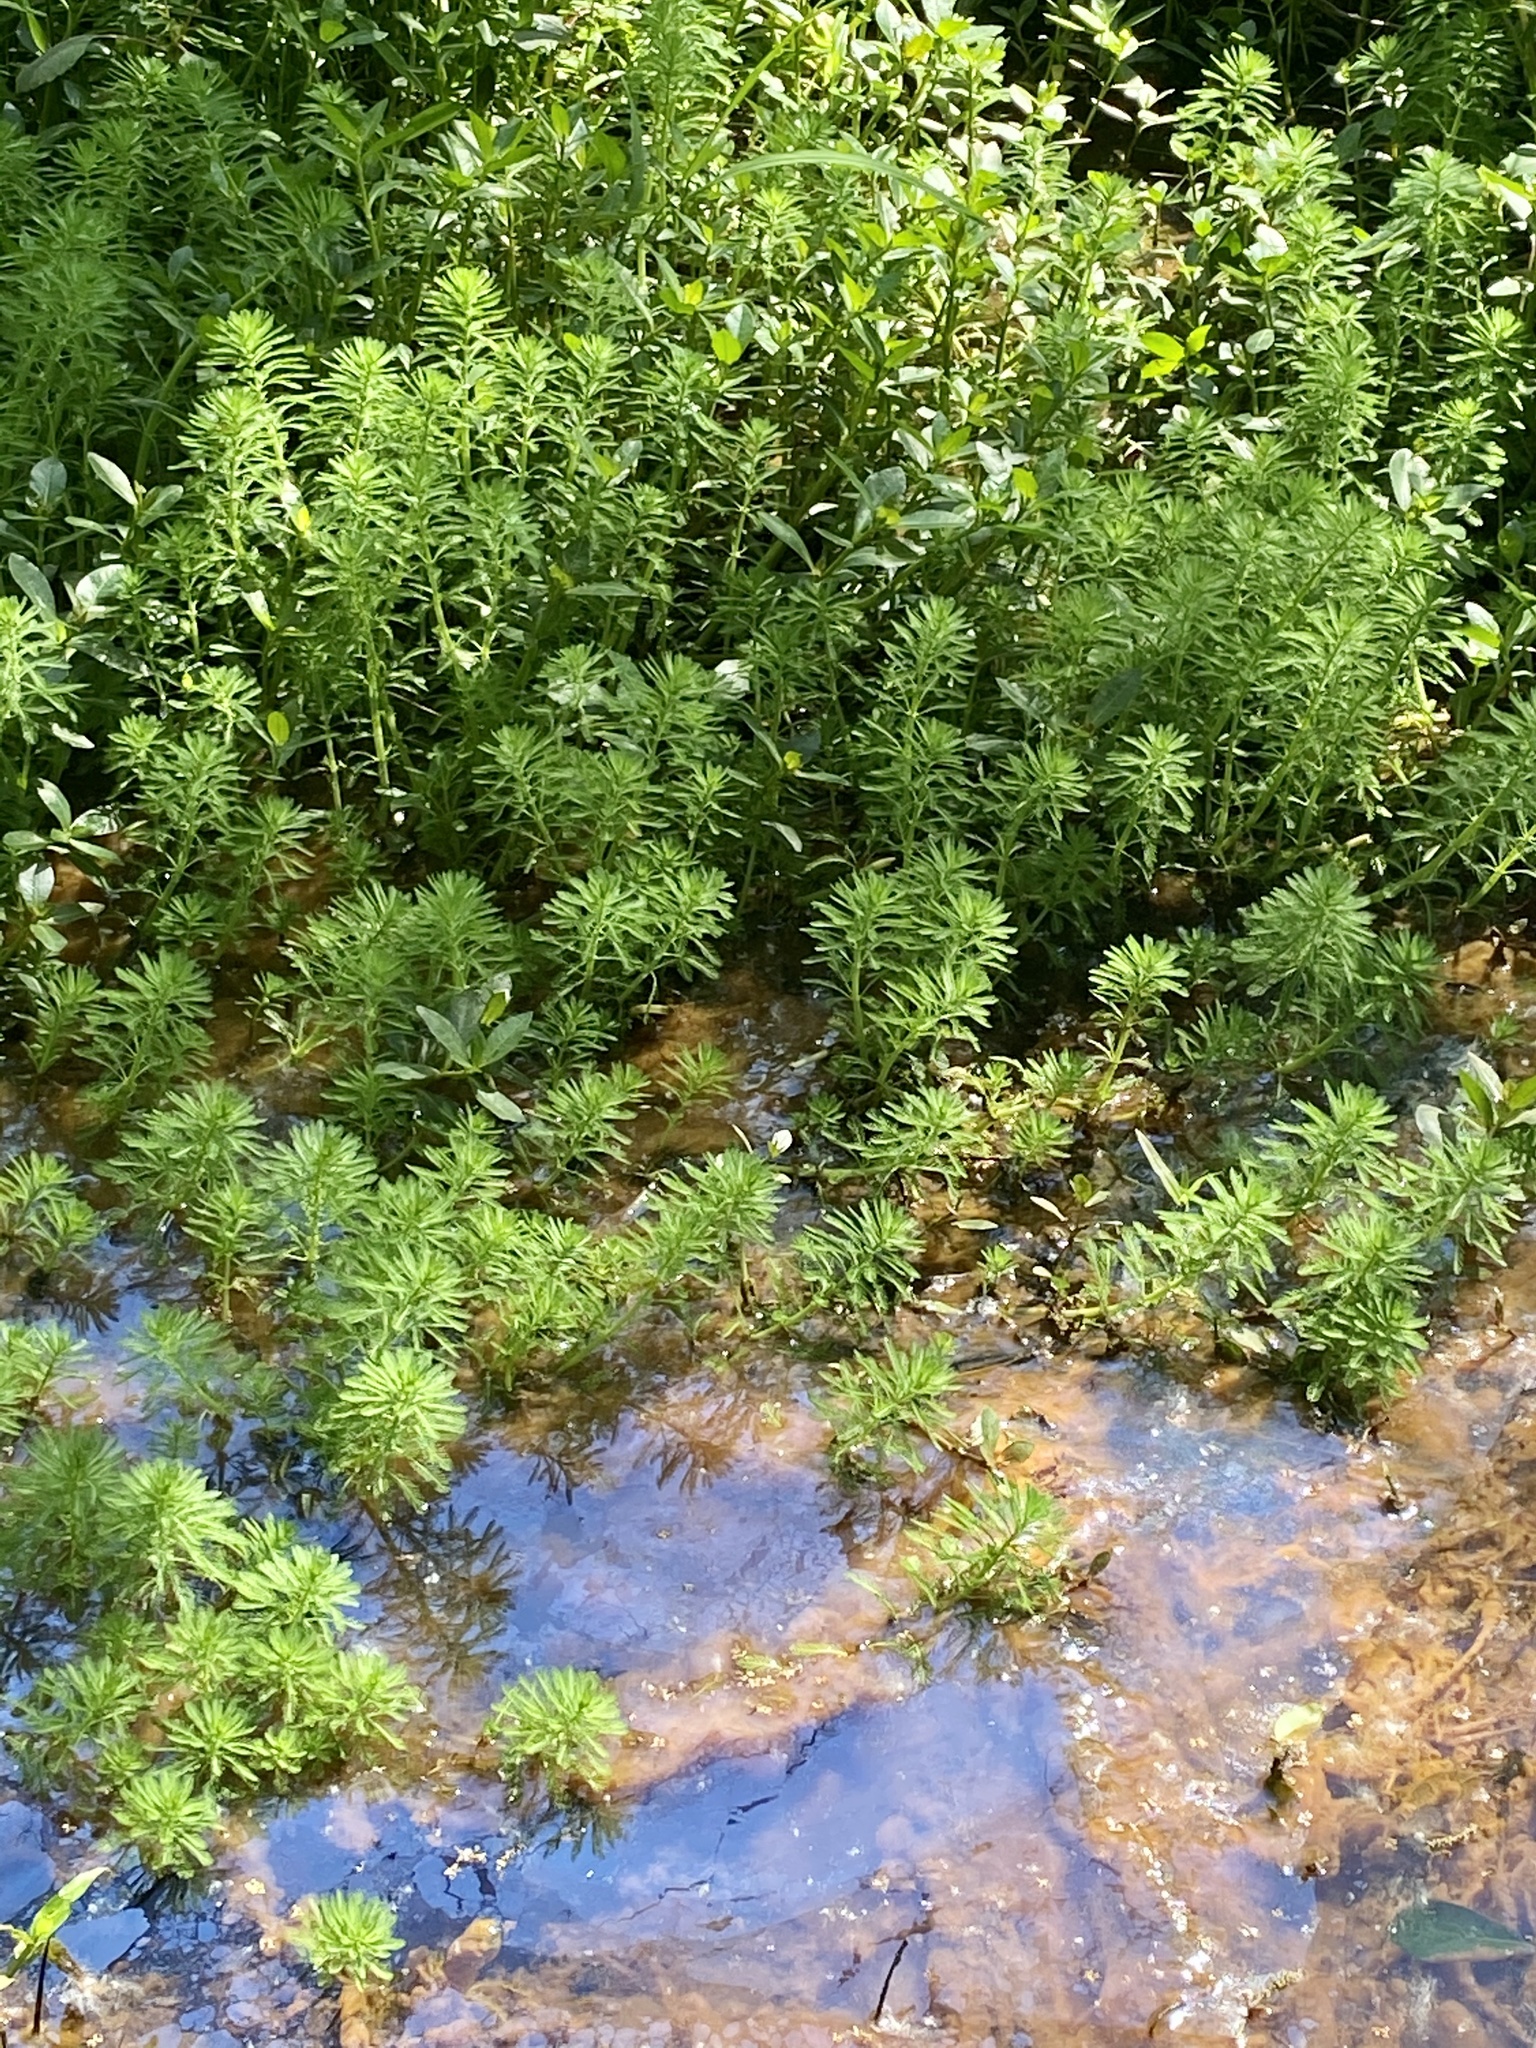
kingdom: Plantae
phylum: Tracheophyta
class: Magnoliopsida
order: Saxifragales
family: Haloragaceae
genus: Myriophyllum
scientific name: Myriophyllum aquaticum
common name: Parrot's feather
